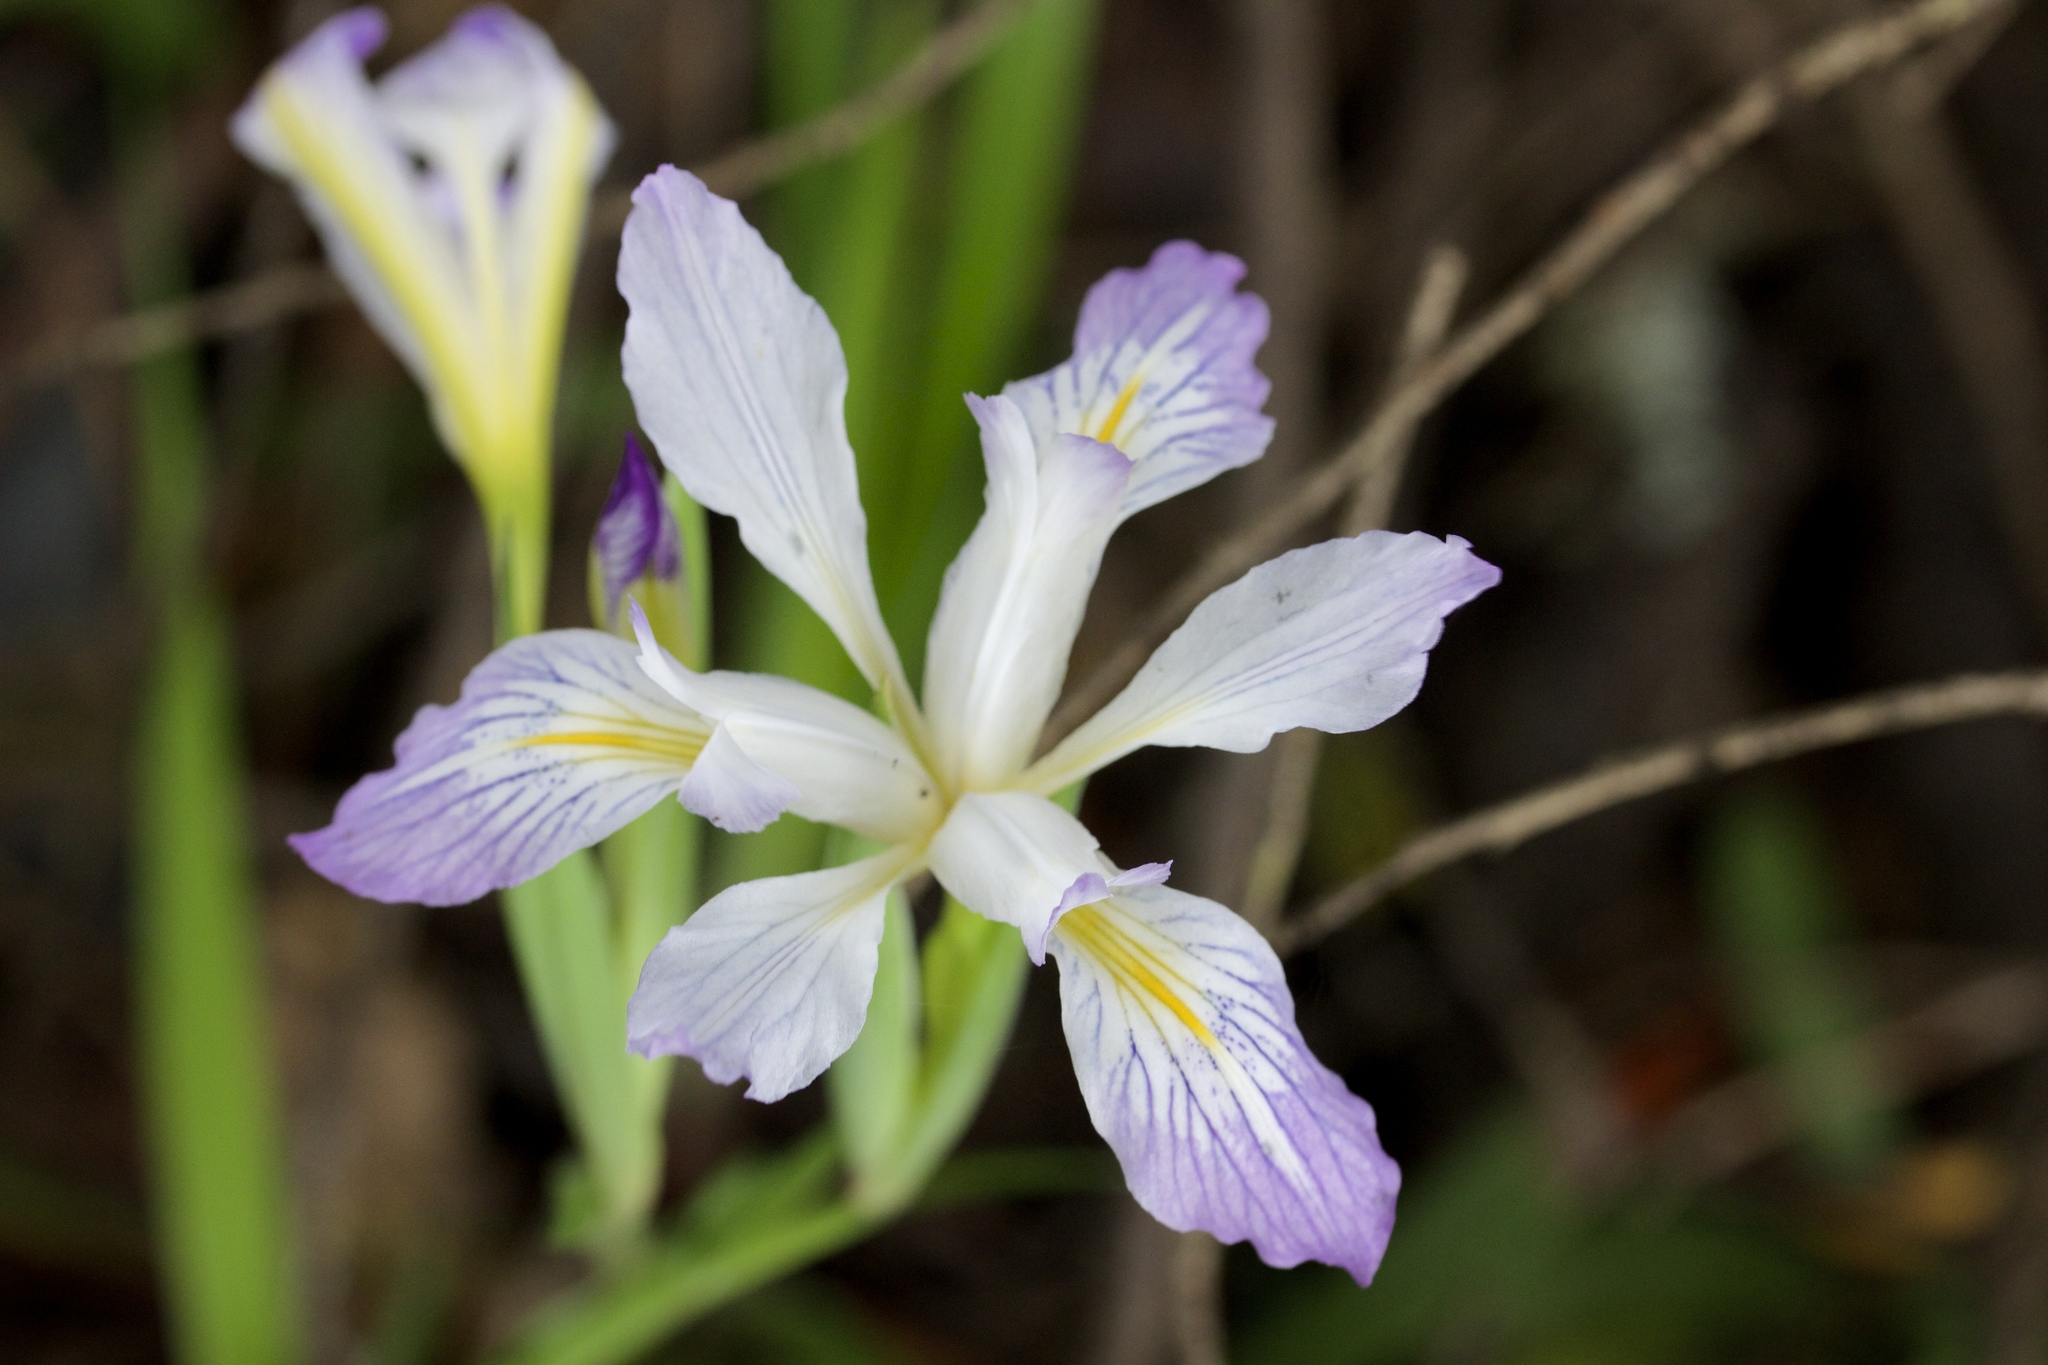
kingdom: Plantae
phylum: Tracheophyta
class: Liliopsida
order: Asparagales
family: Iridaceae
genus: Iris
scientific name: Iris douglasiana
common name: Marin iris
